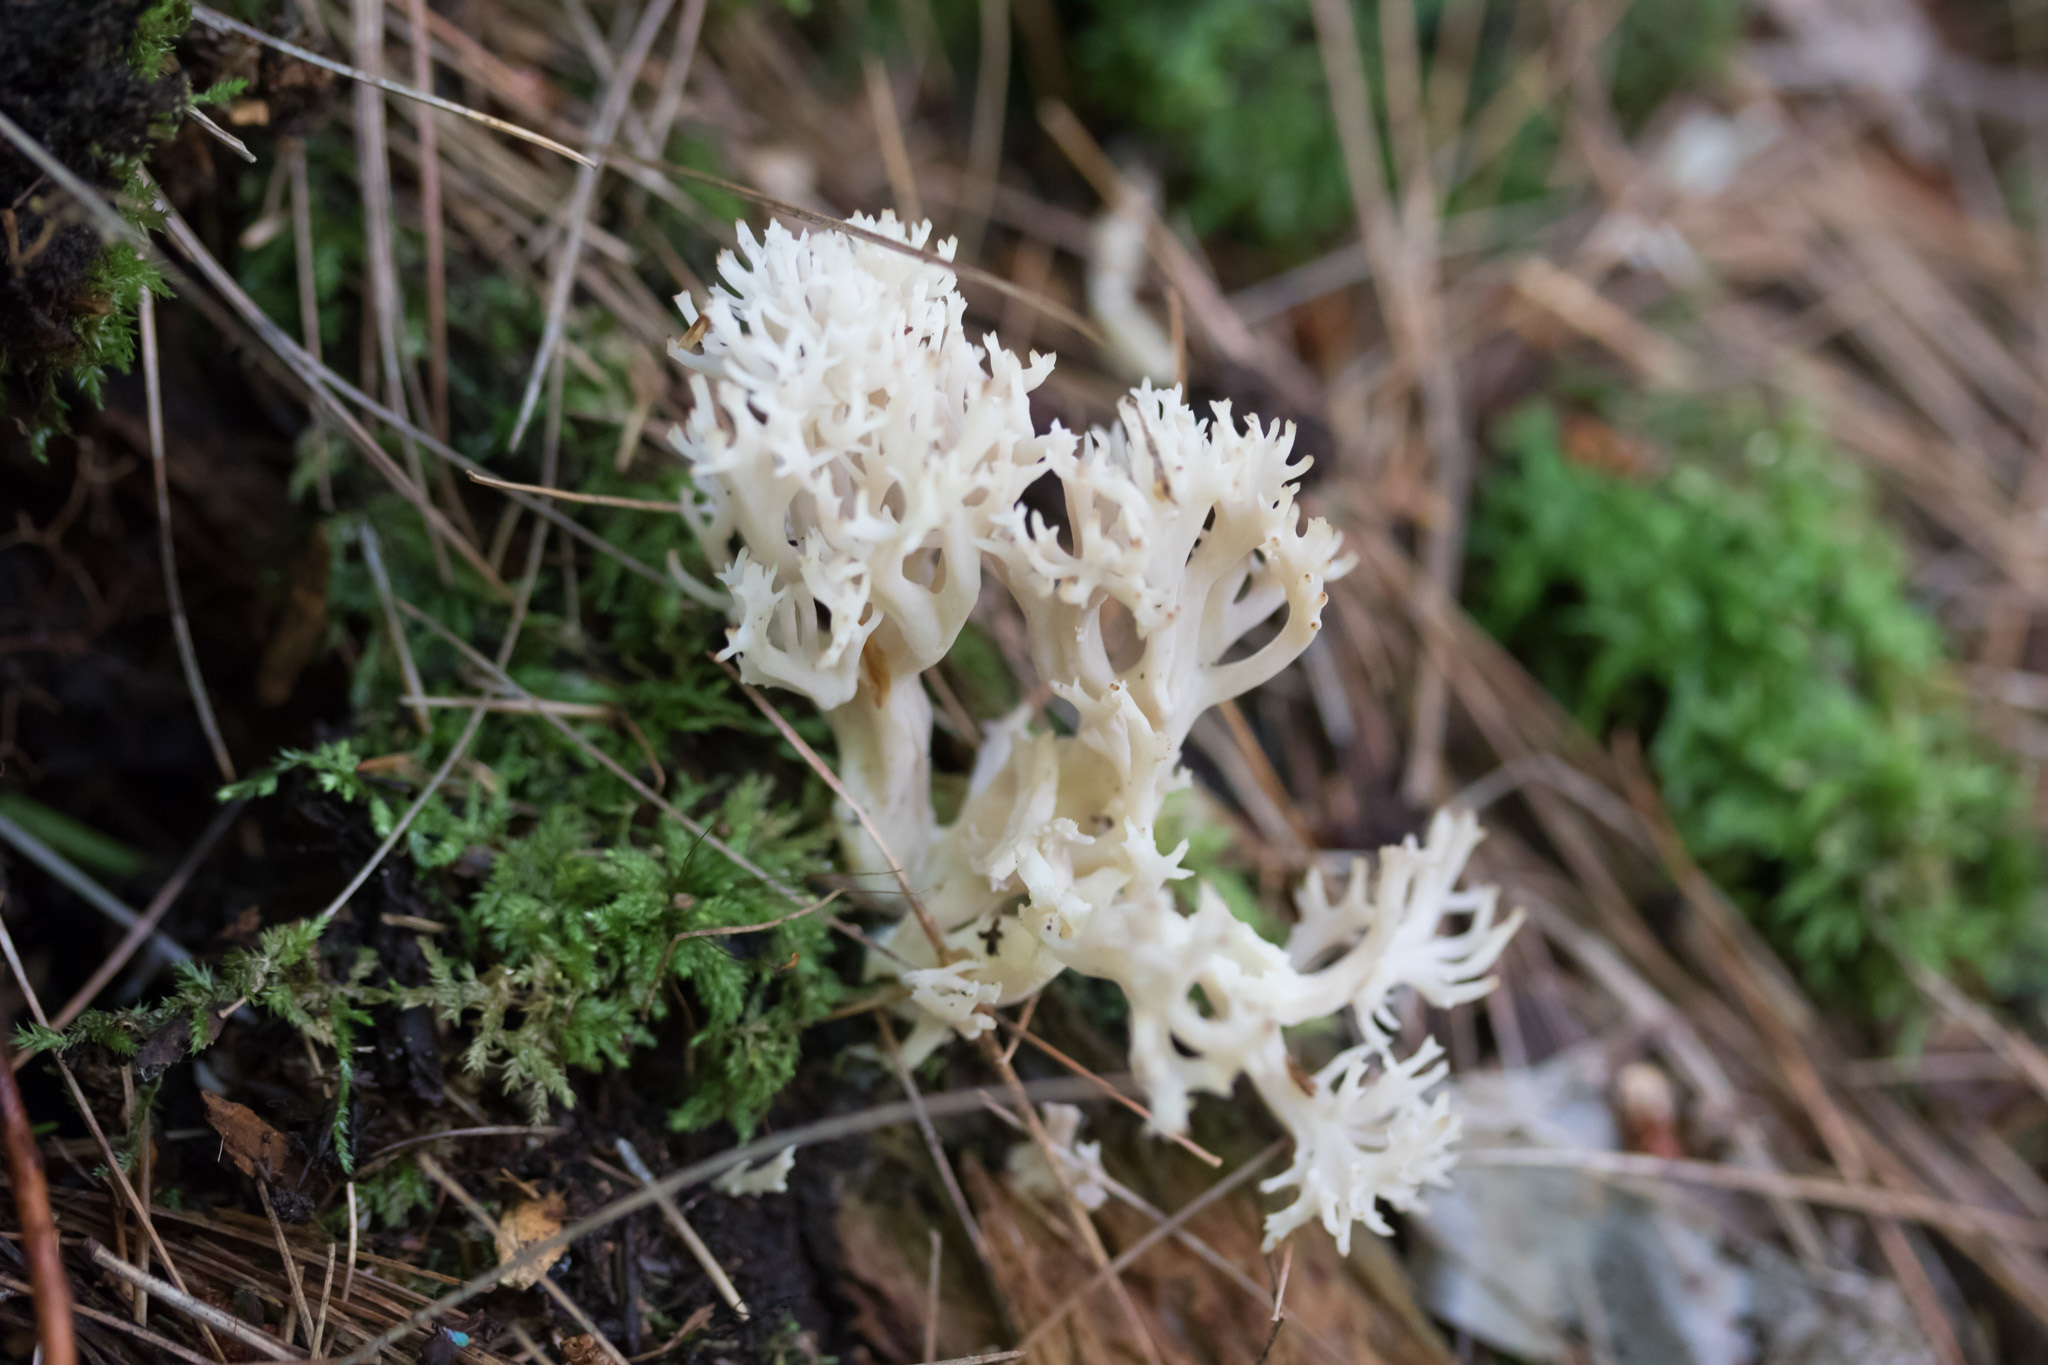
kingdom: Fungi
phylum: Basidiomycota
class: Agaricomycetes
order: Cantharellales
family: Hydnaceae
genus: Clavulina
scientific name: Clavulina coralloides
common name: Crested coral
